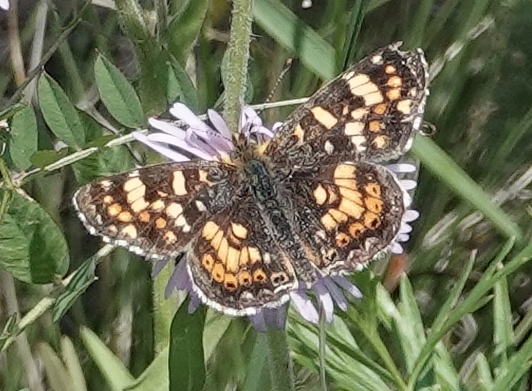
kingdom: Animalia
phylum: Arthropoda
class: Insecta
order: Lepidoptera
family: Nymphalidae
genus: Phyciodes
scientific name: Phyciodes tharos
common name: Pearl crescent
